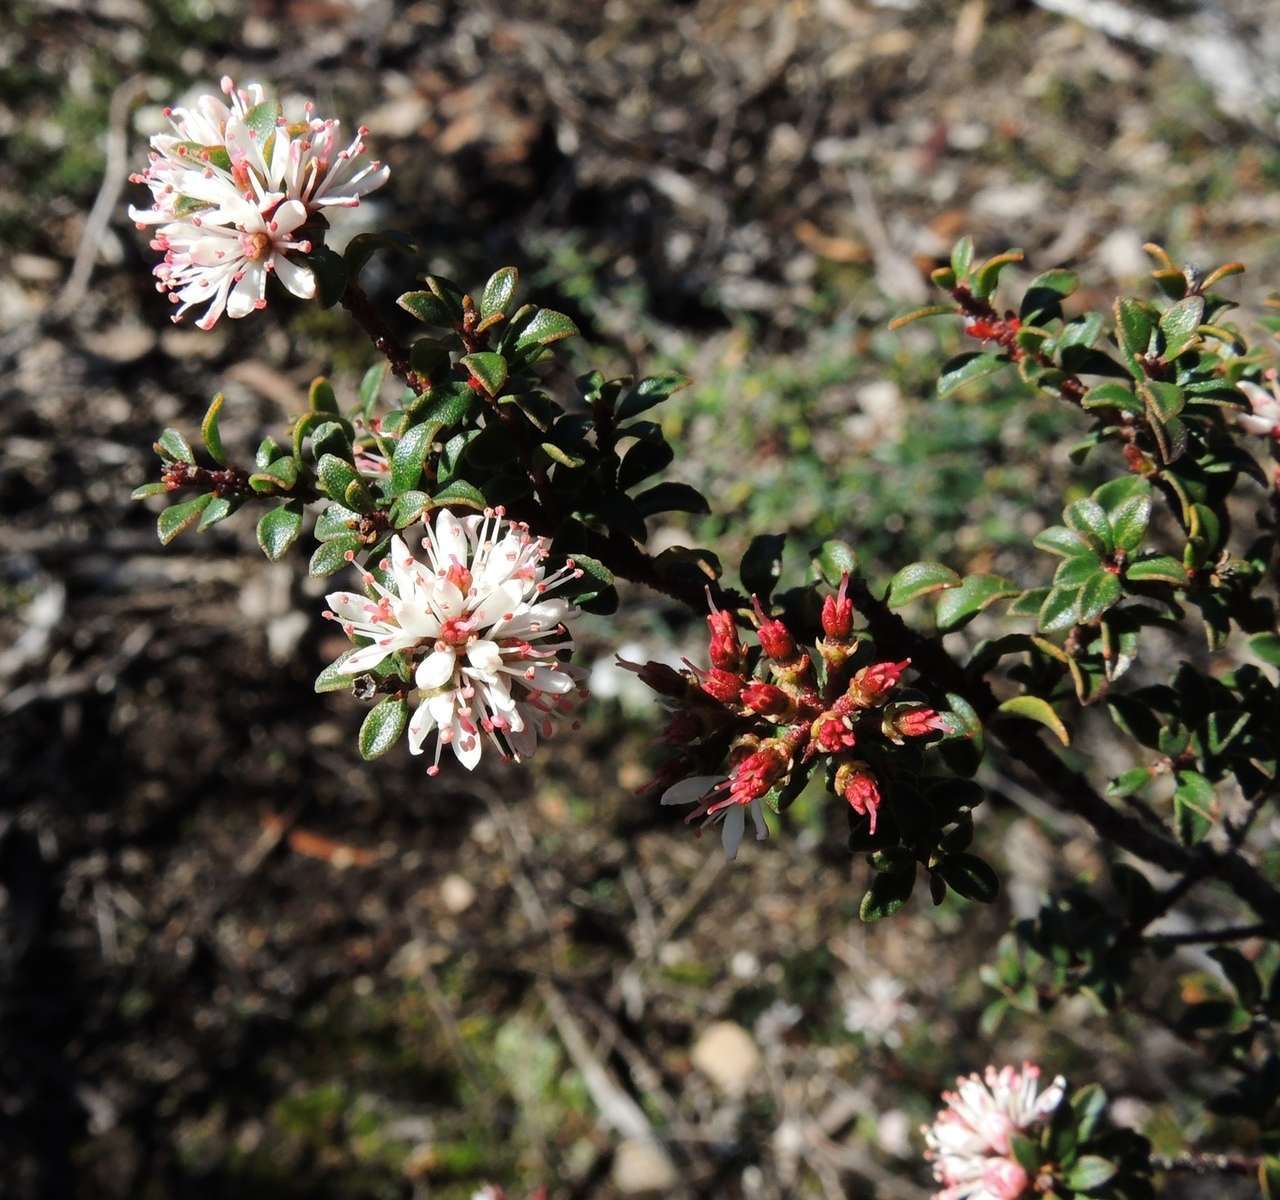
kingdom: Plantae
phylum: Tracheophyta
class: Magnoliopsida
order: Sapindales
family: Rutaceae
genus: Leionema
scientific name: Leionema lamprophyllum
